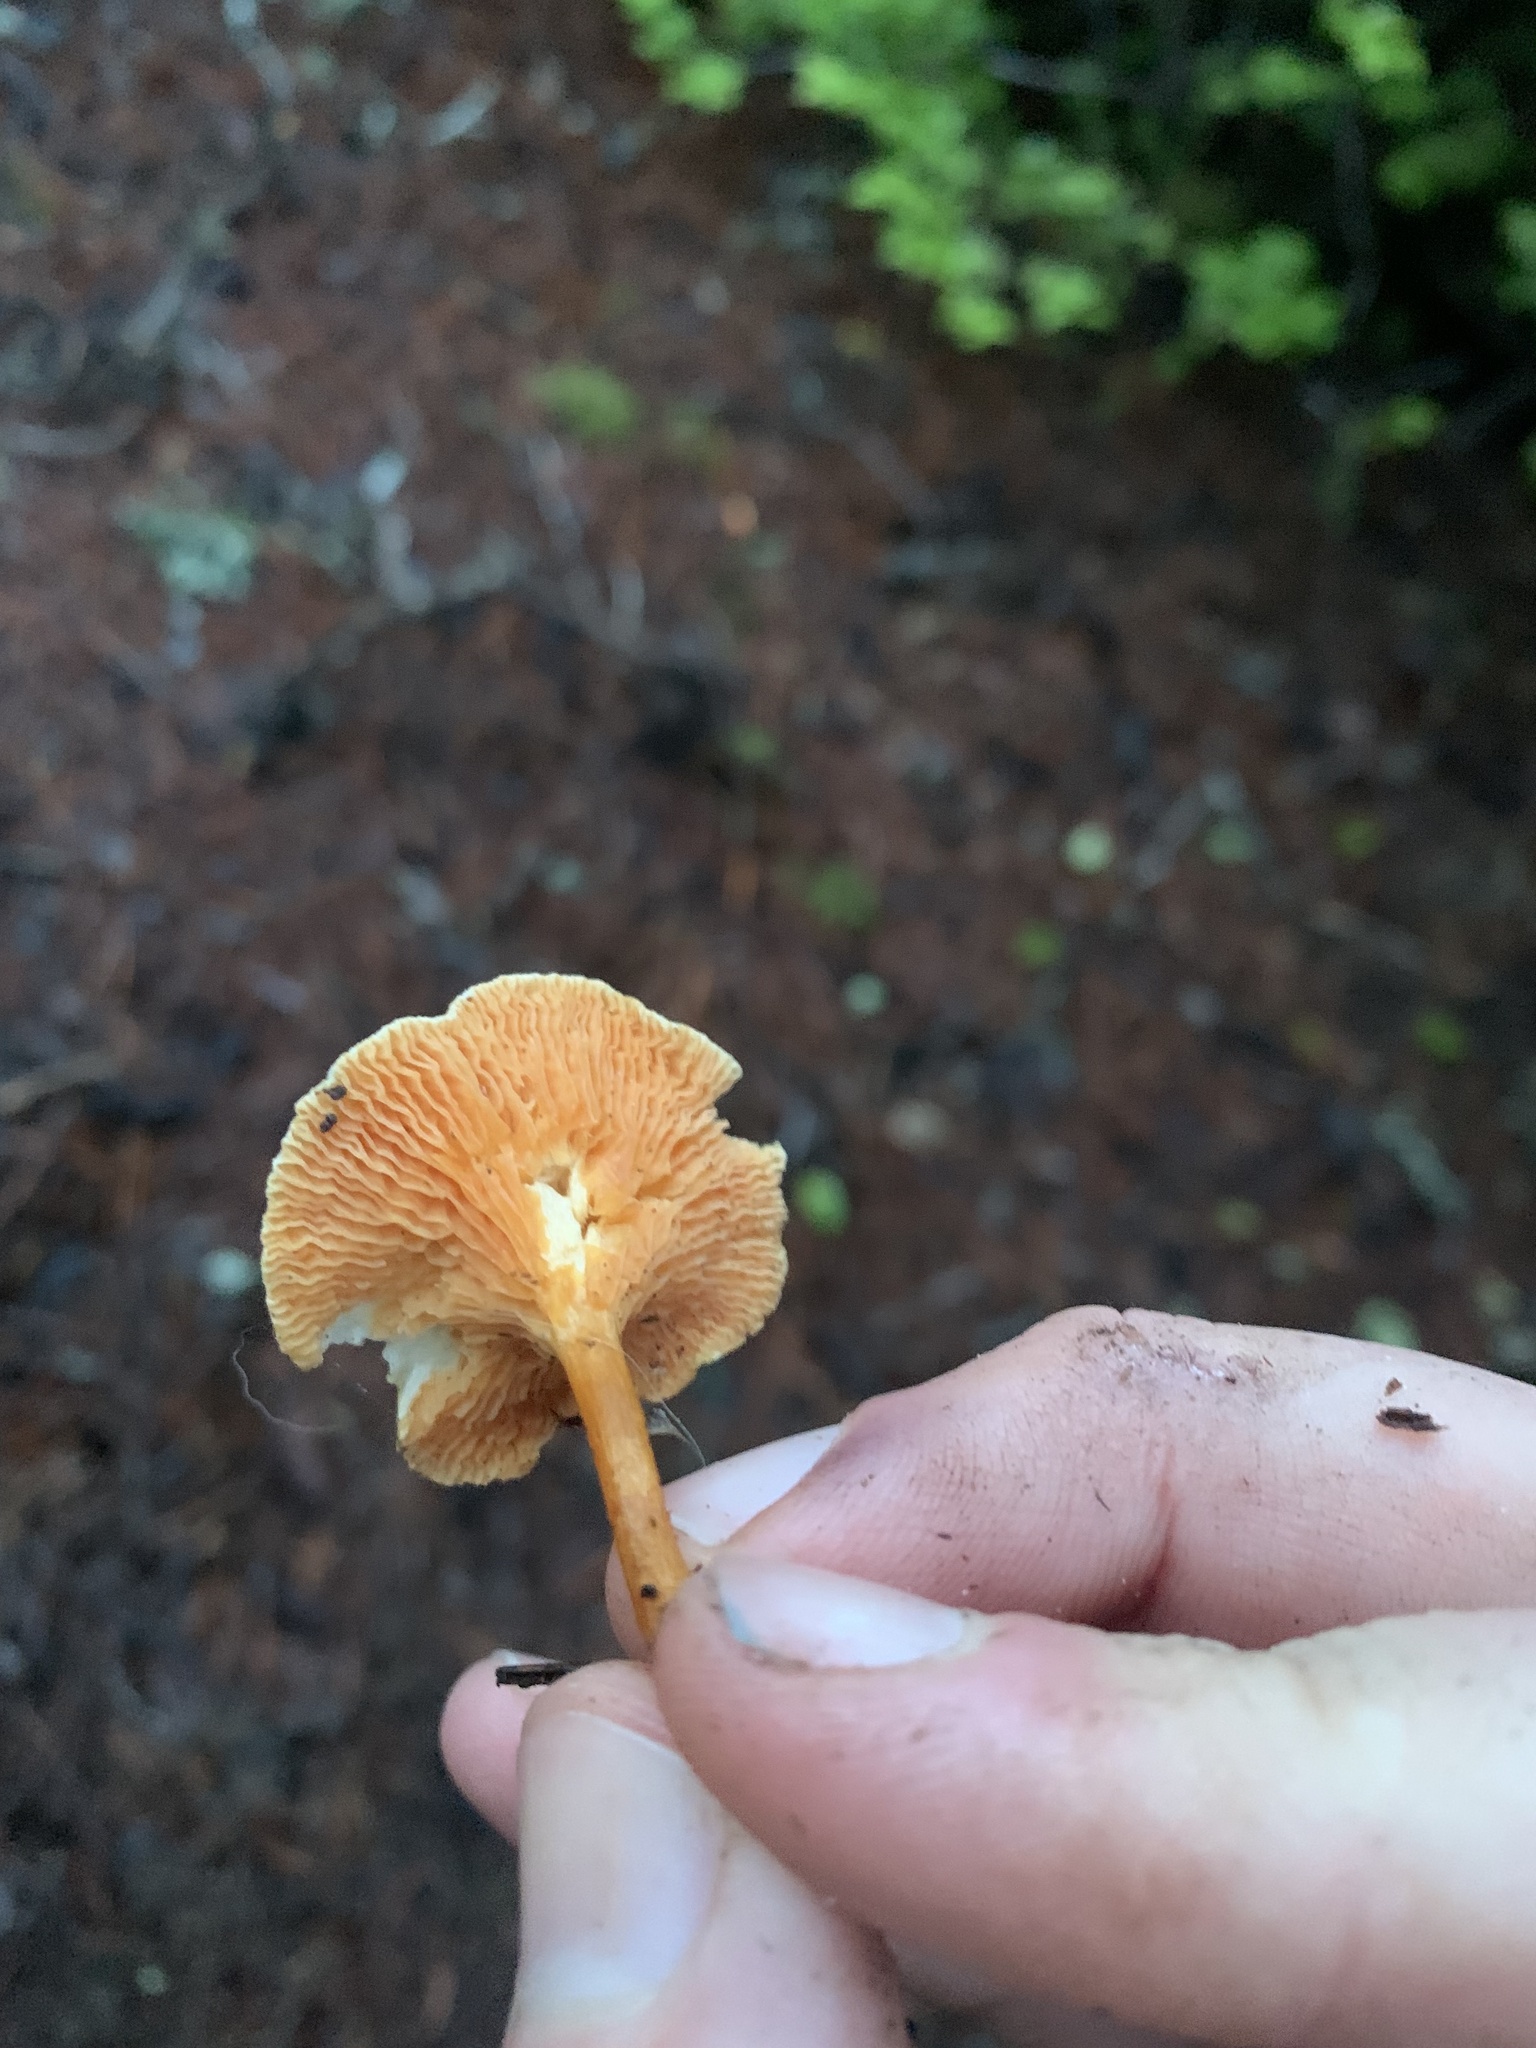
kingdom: Fungi
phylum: Basidiomycota
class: Agaricomycetes
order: Boletales
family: Hygrophoropsidaceae
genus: Hygrophoropsis
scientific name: Hygrophoropsis aurantiaca
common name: False chanterelle
